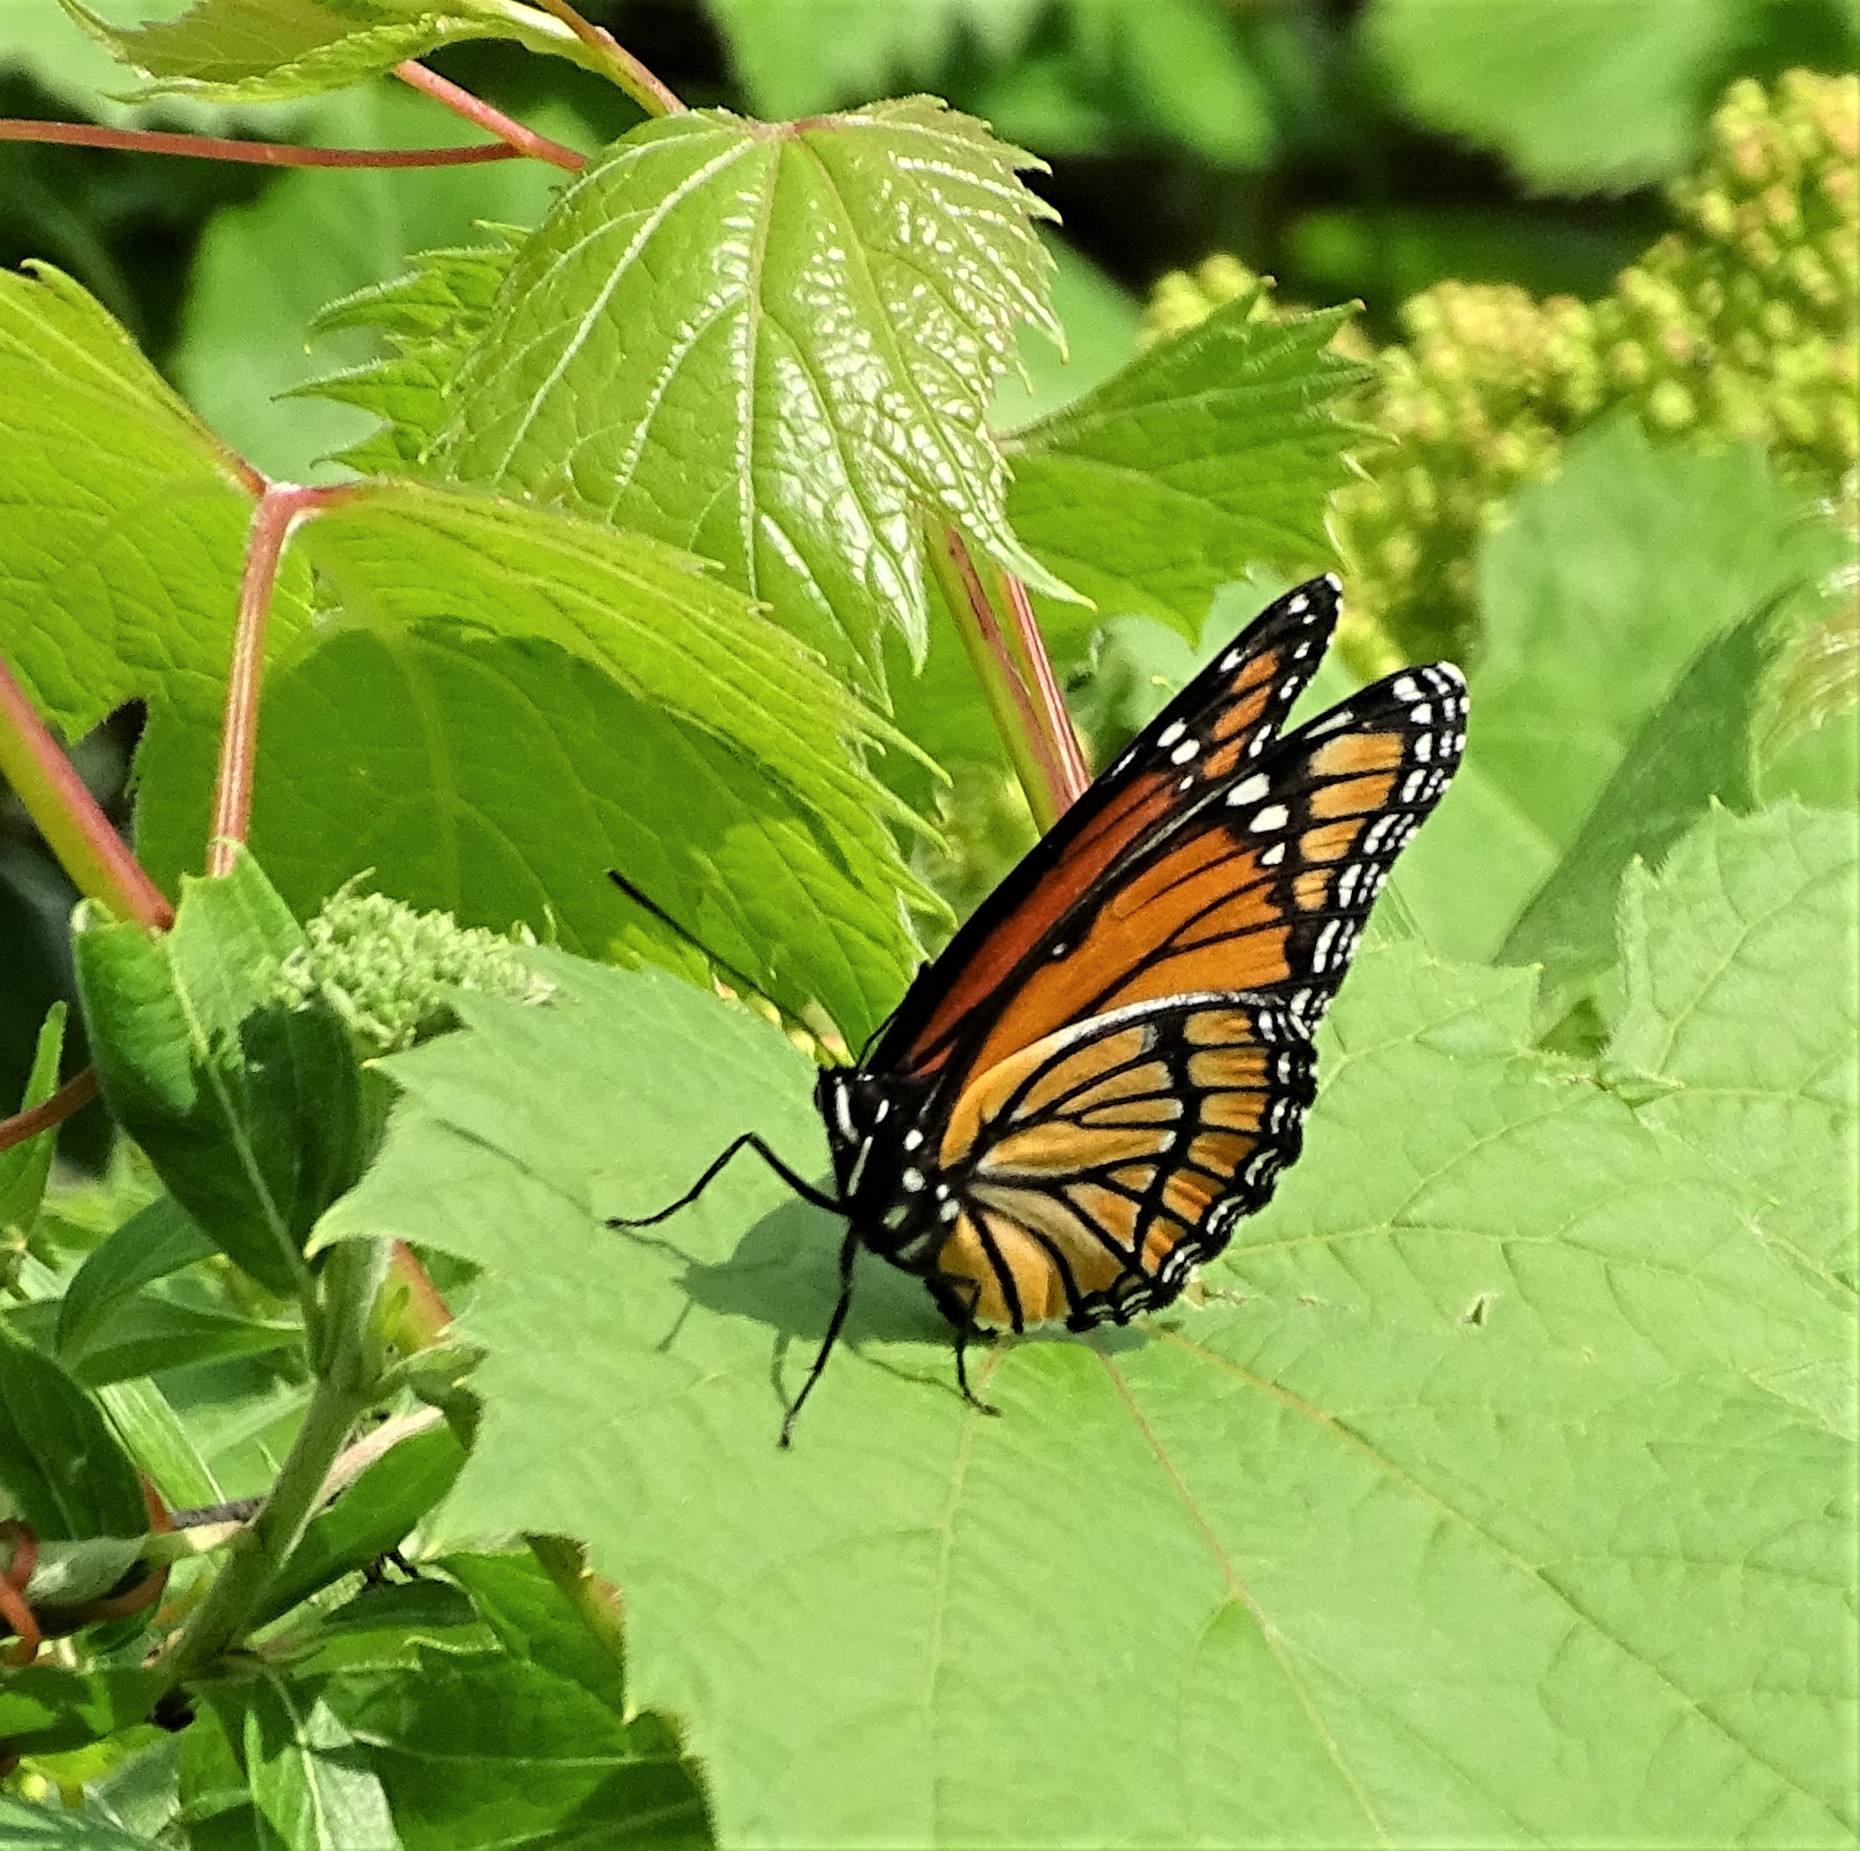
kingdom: Animalia
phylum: Arthropoda
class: Insecta
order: Lepidoptera
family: Nymphalidae
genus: Limenitis
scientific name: Limenitis archippus
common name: Viceroy
